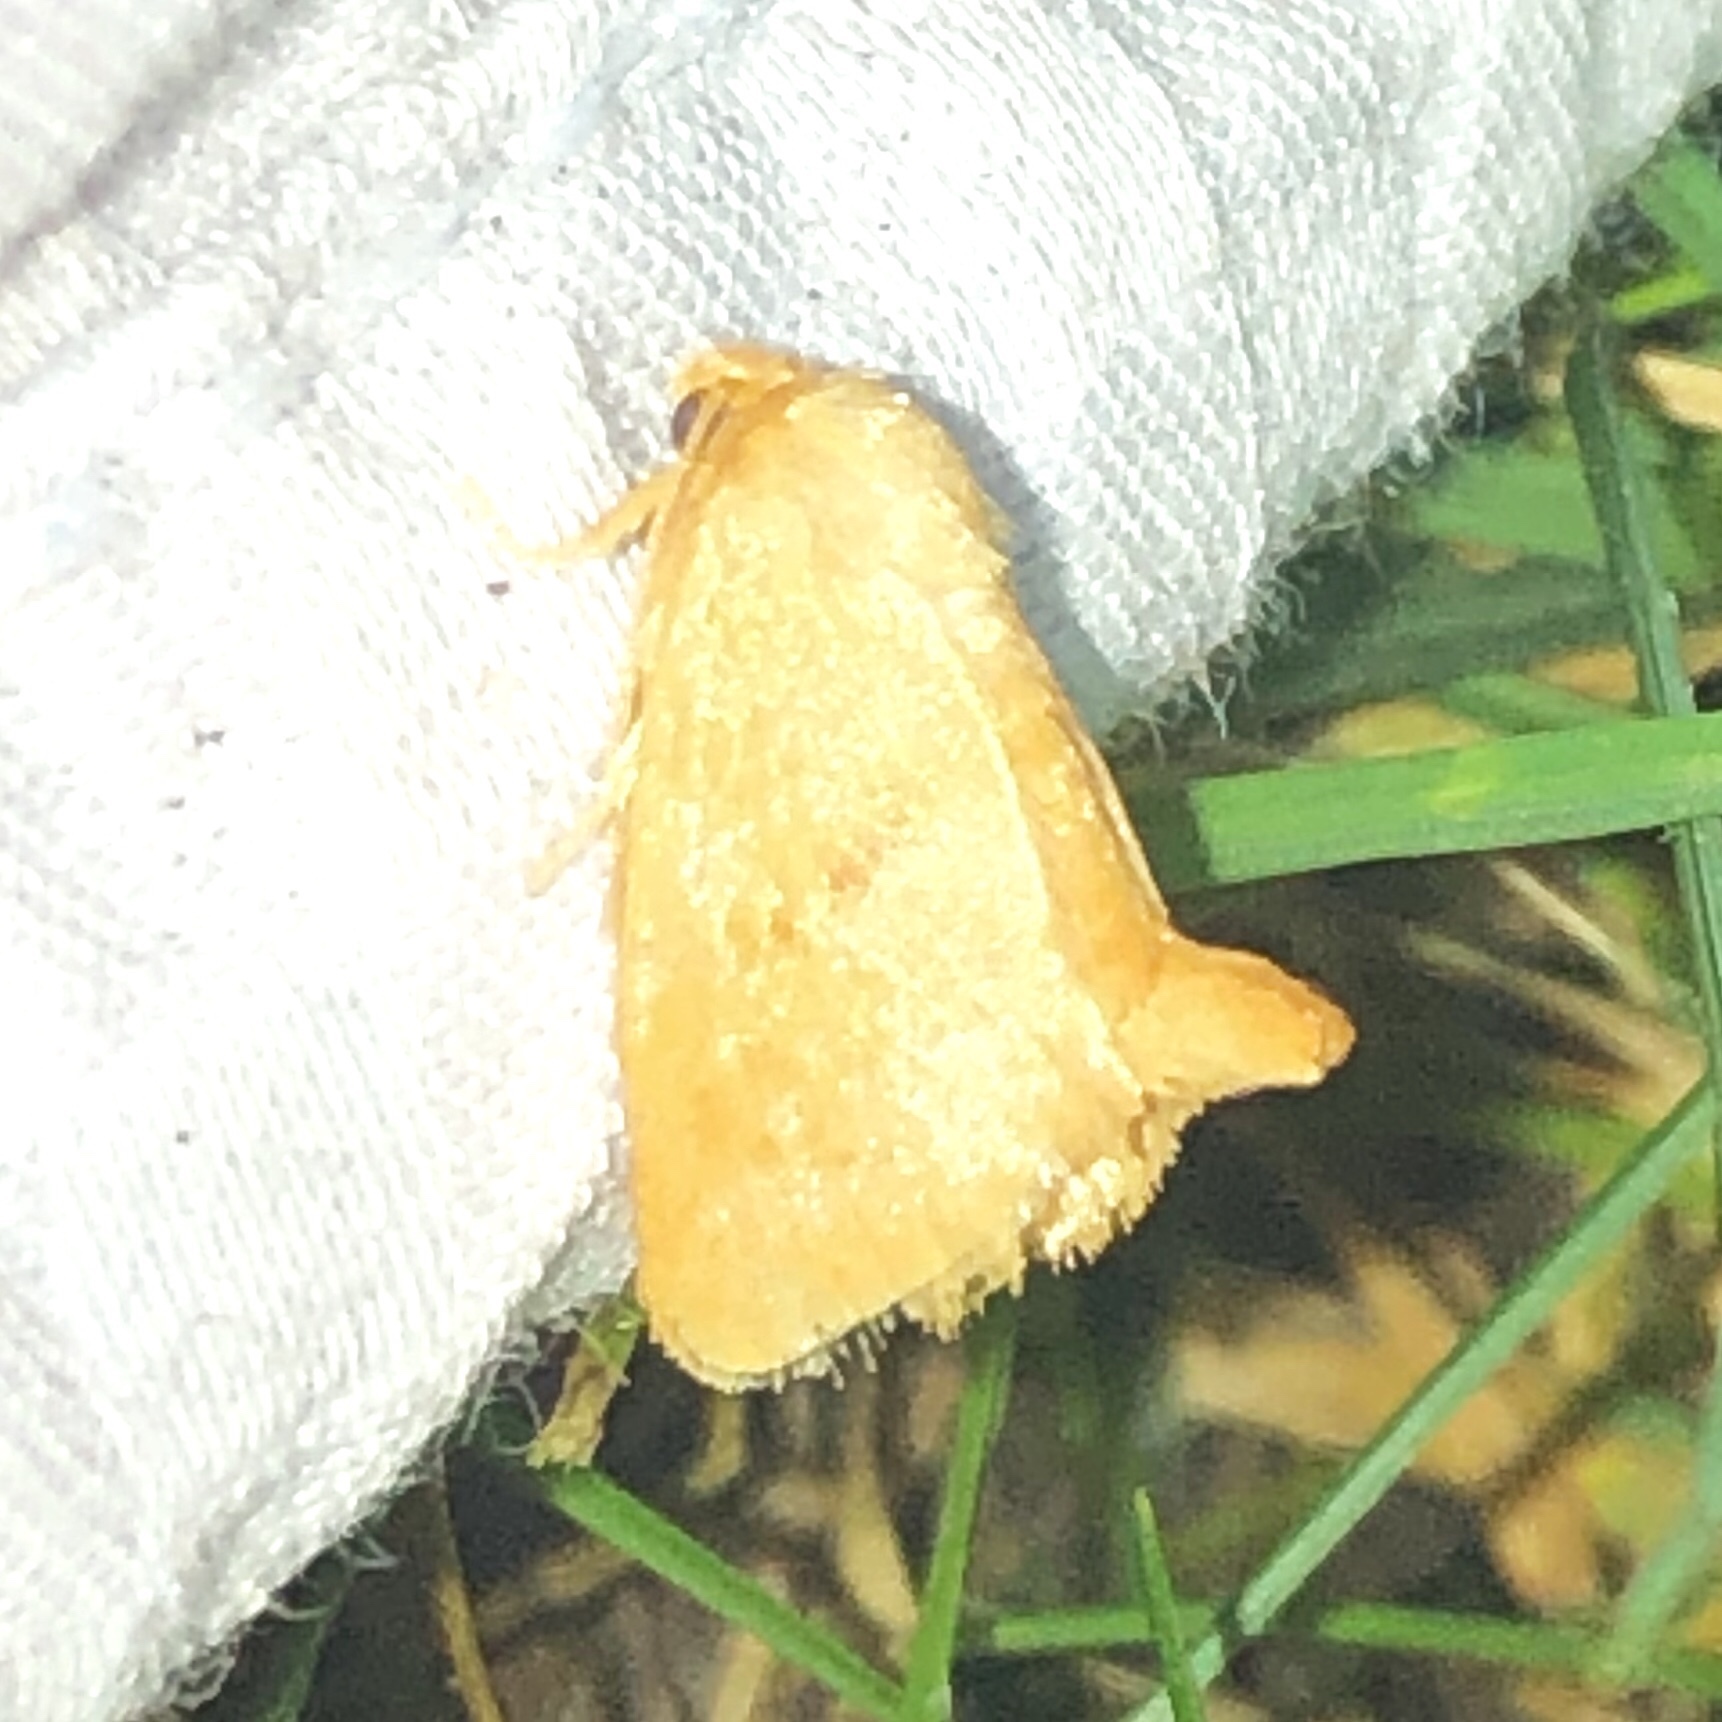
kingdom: Animalia
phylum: Arthropoda
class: Insecta
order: Lepidoptera
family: Limacodidae
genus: Tortricidia
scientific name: Tortricidia pallida
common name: Red-crossed button slug moth
